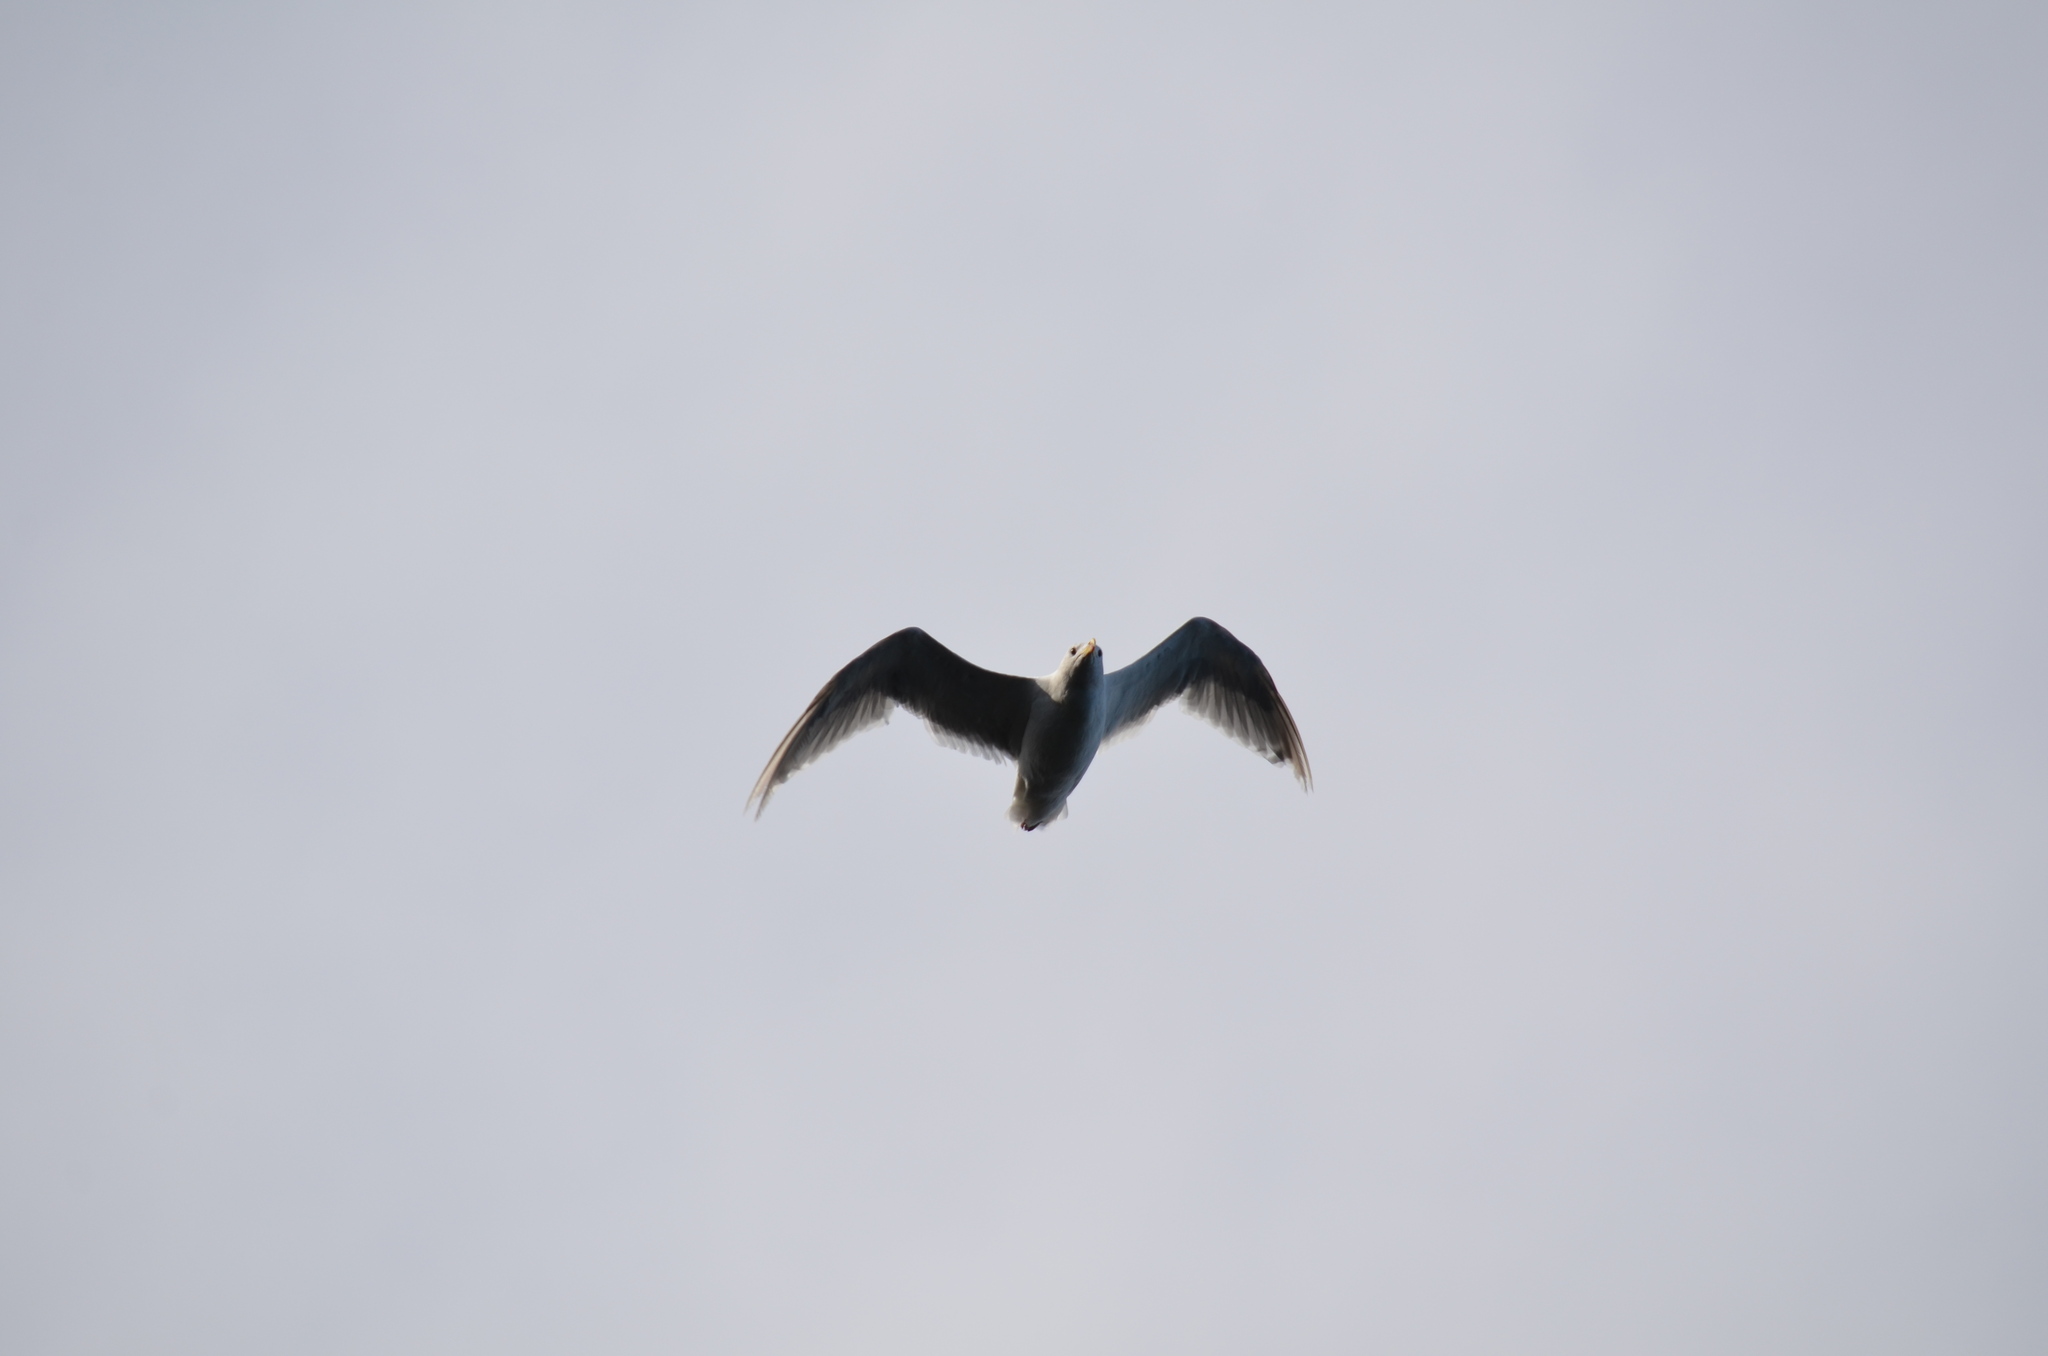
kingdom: Animalia
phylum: Chordata
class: Aves
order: Charadriiformes
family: Laridae
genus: Larus
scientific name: Larus glaucescens
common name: Glaucous-winged gull
